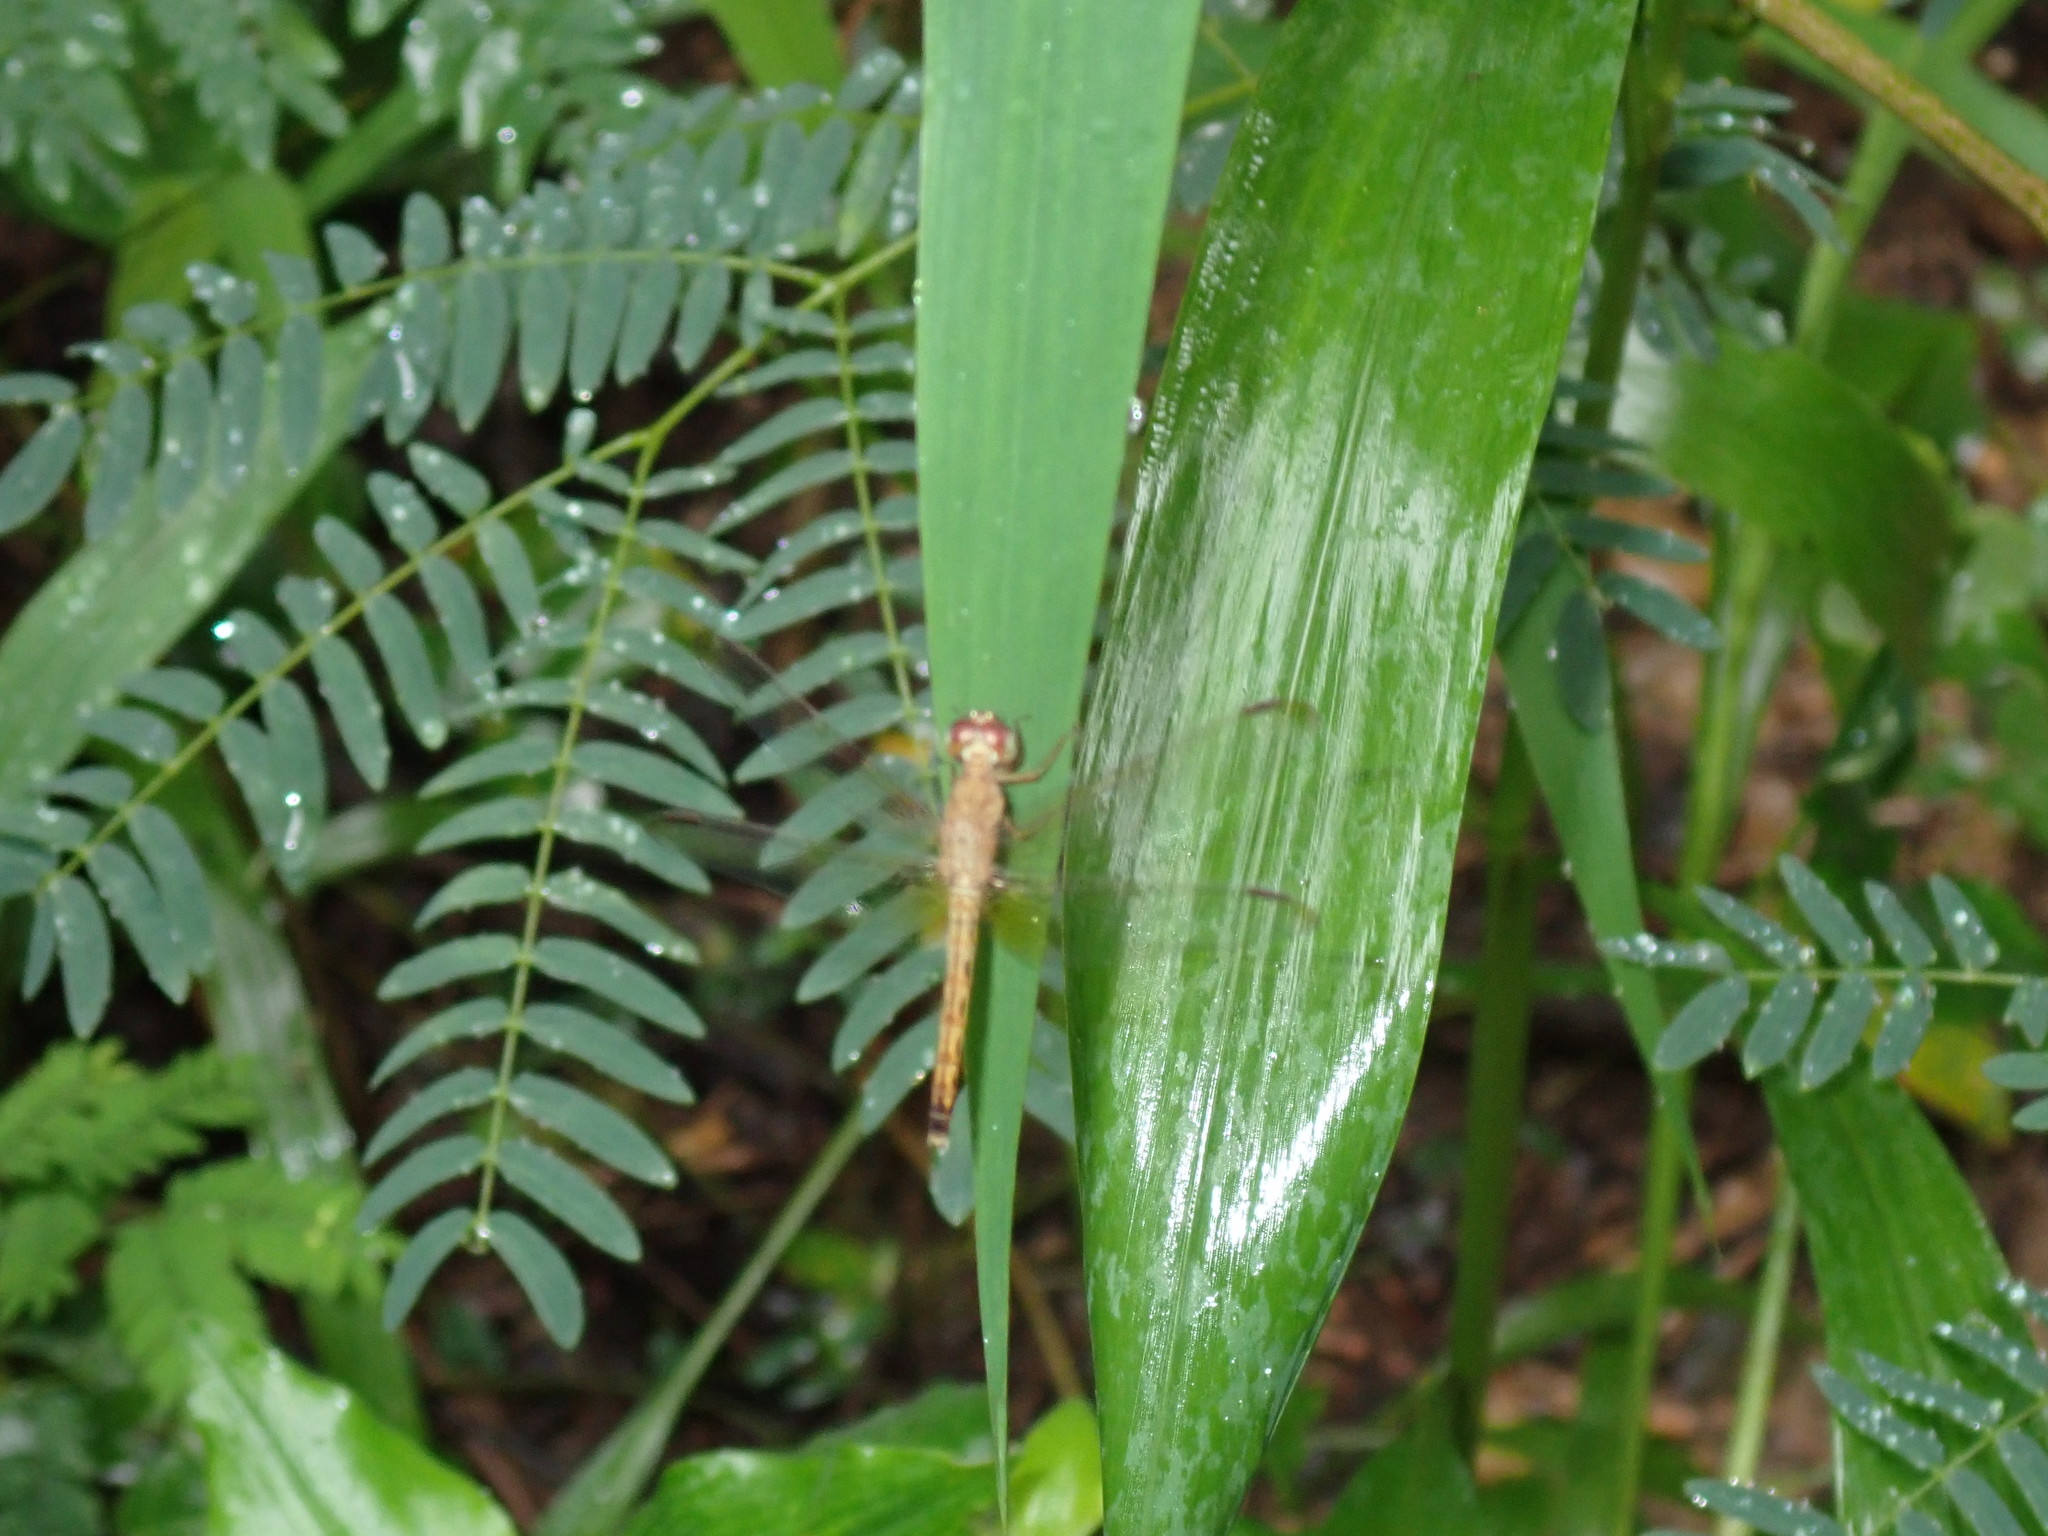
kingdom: Animalia
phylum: Arthropoda
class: Insecta
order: Odonata
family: Libellulidae
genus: Neurothemis
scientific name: Neurothemis fluctuans
